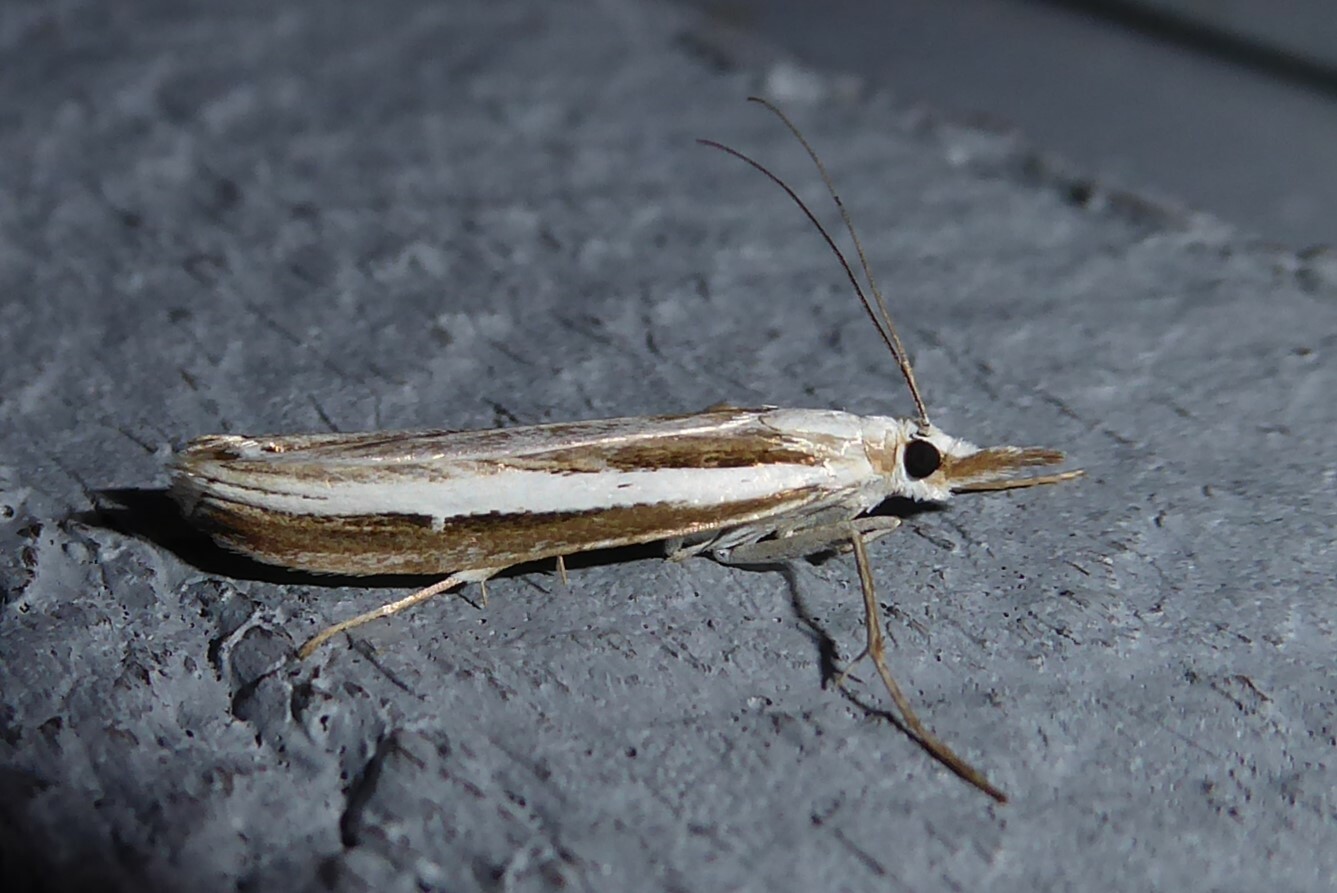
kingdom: Animalia
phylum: Arthropoda
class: Insecta
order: Lepidoptera
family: Crambidae
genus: Orocrambus
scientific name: Orocrambus vittellus
